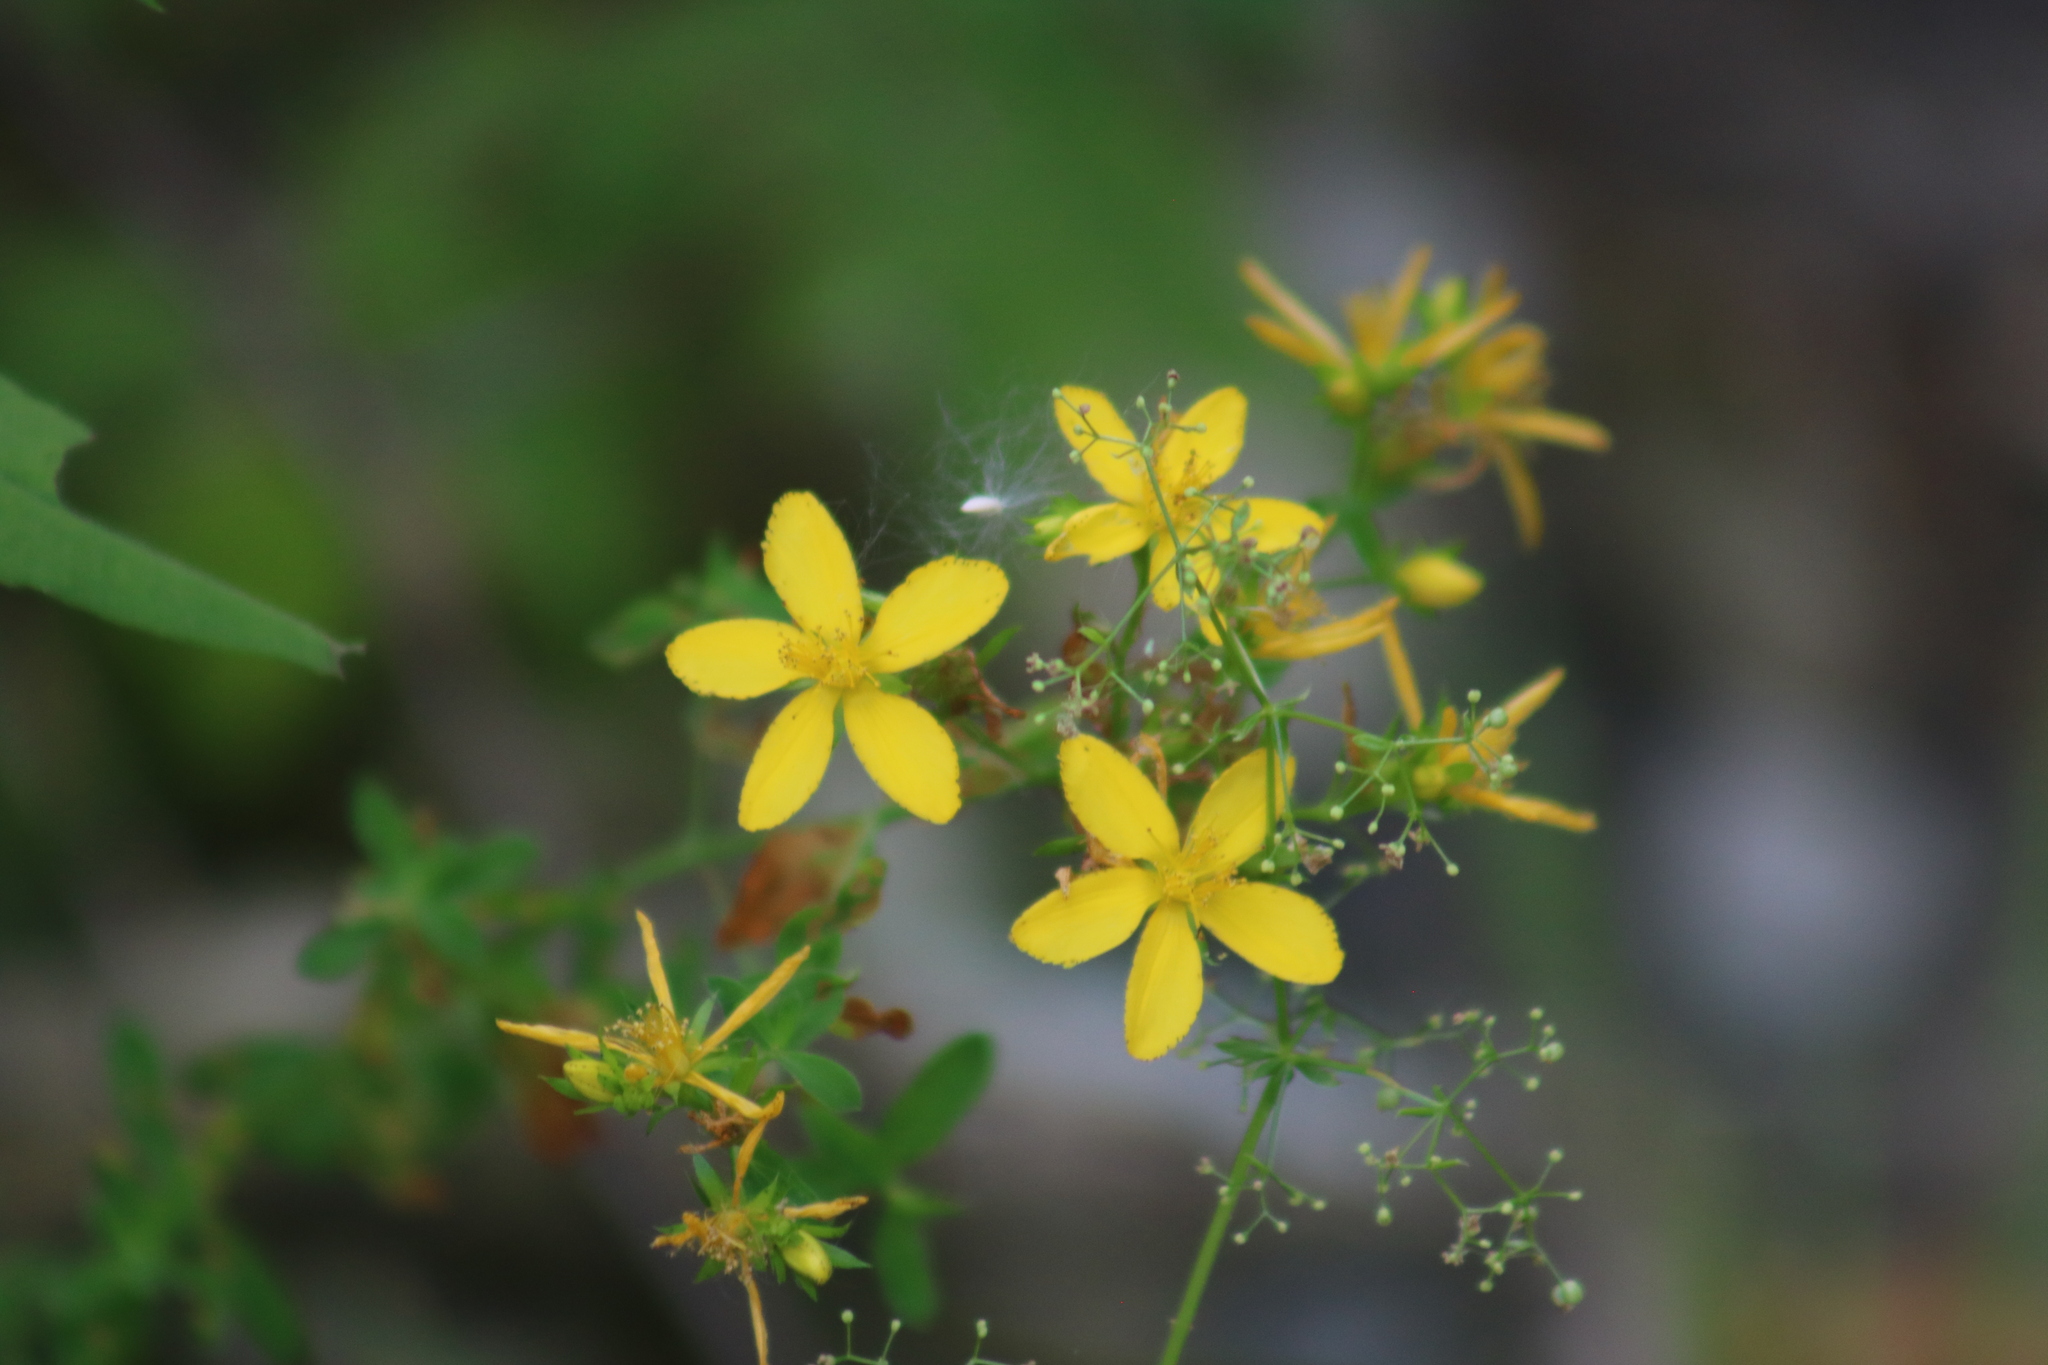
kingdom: Plantae
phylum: Tracheophyta
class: Magnoliopsida
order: Malpighiales
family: Hypericaceae
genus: Hypericum
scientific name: Hypericum perforatum
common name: Common st. johnswort
